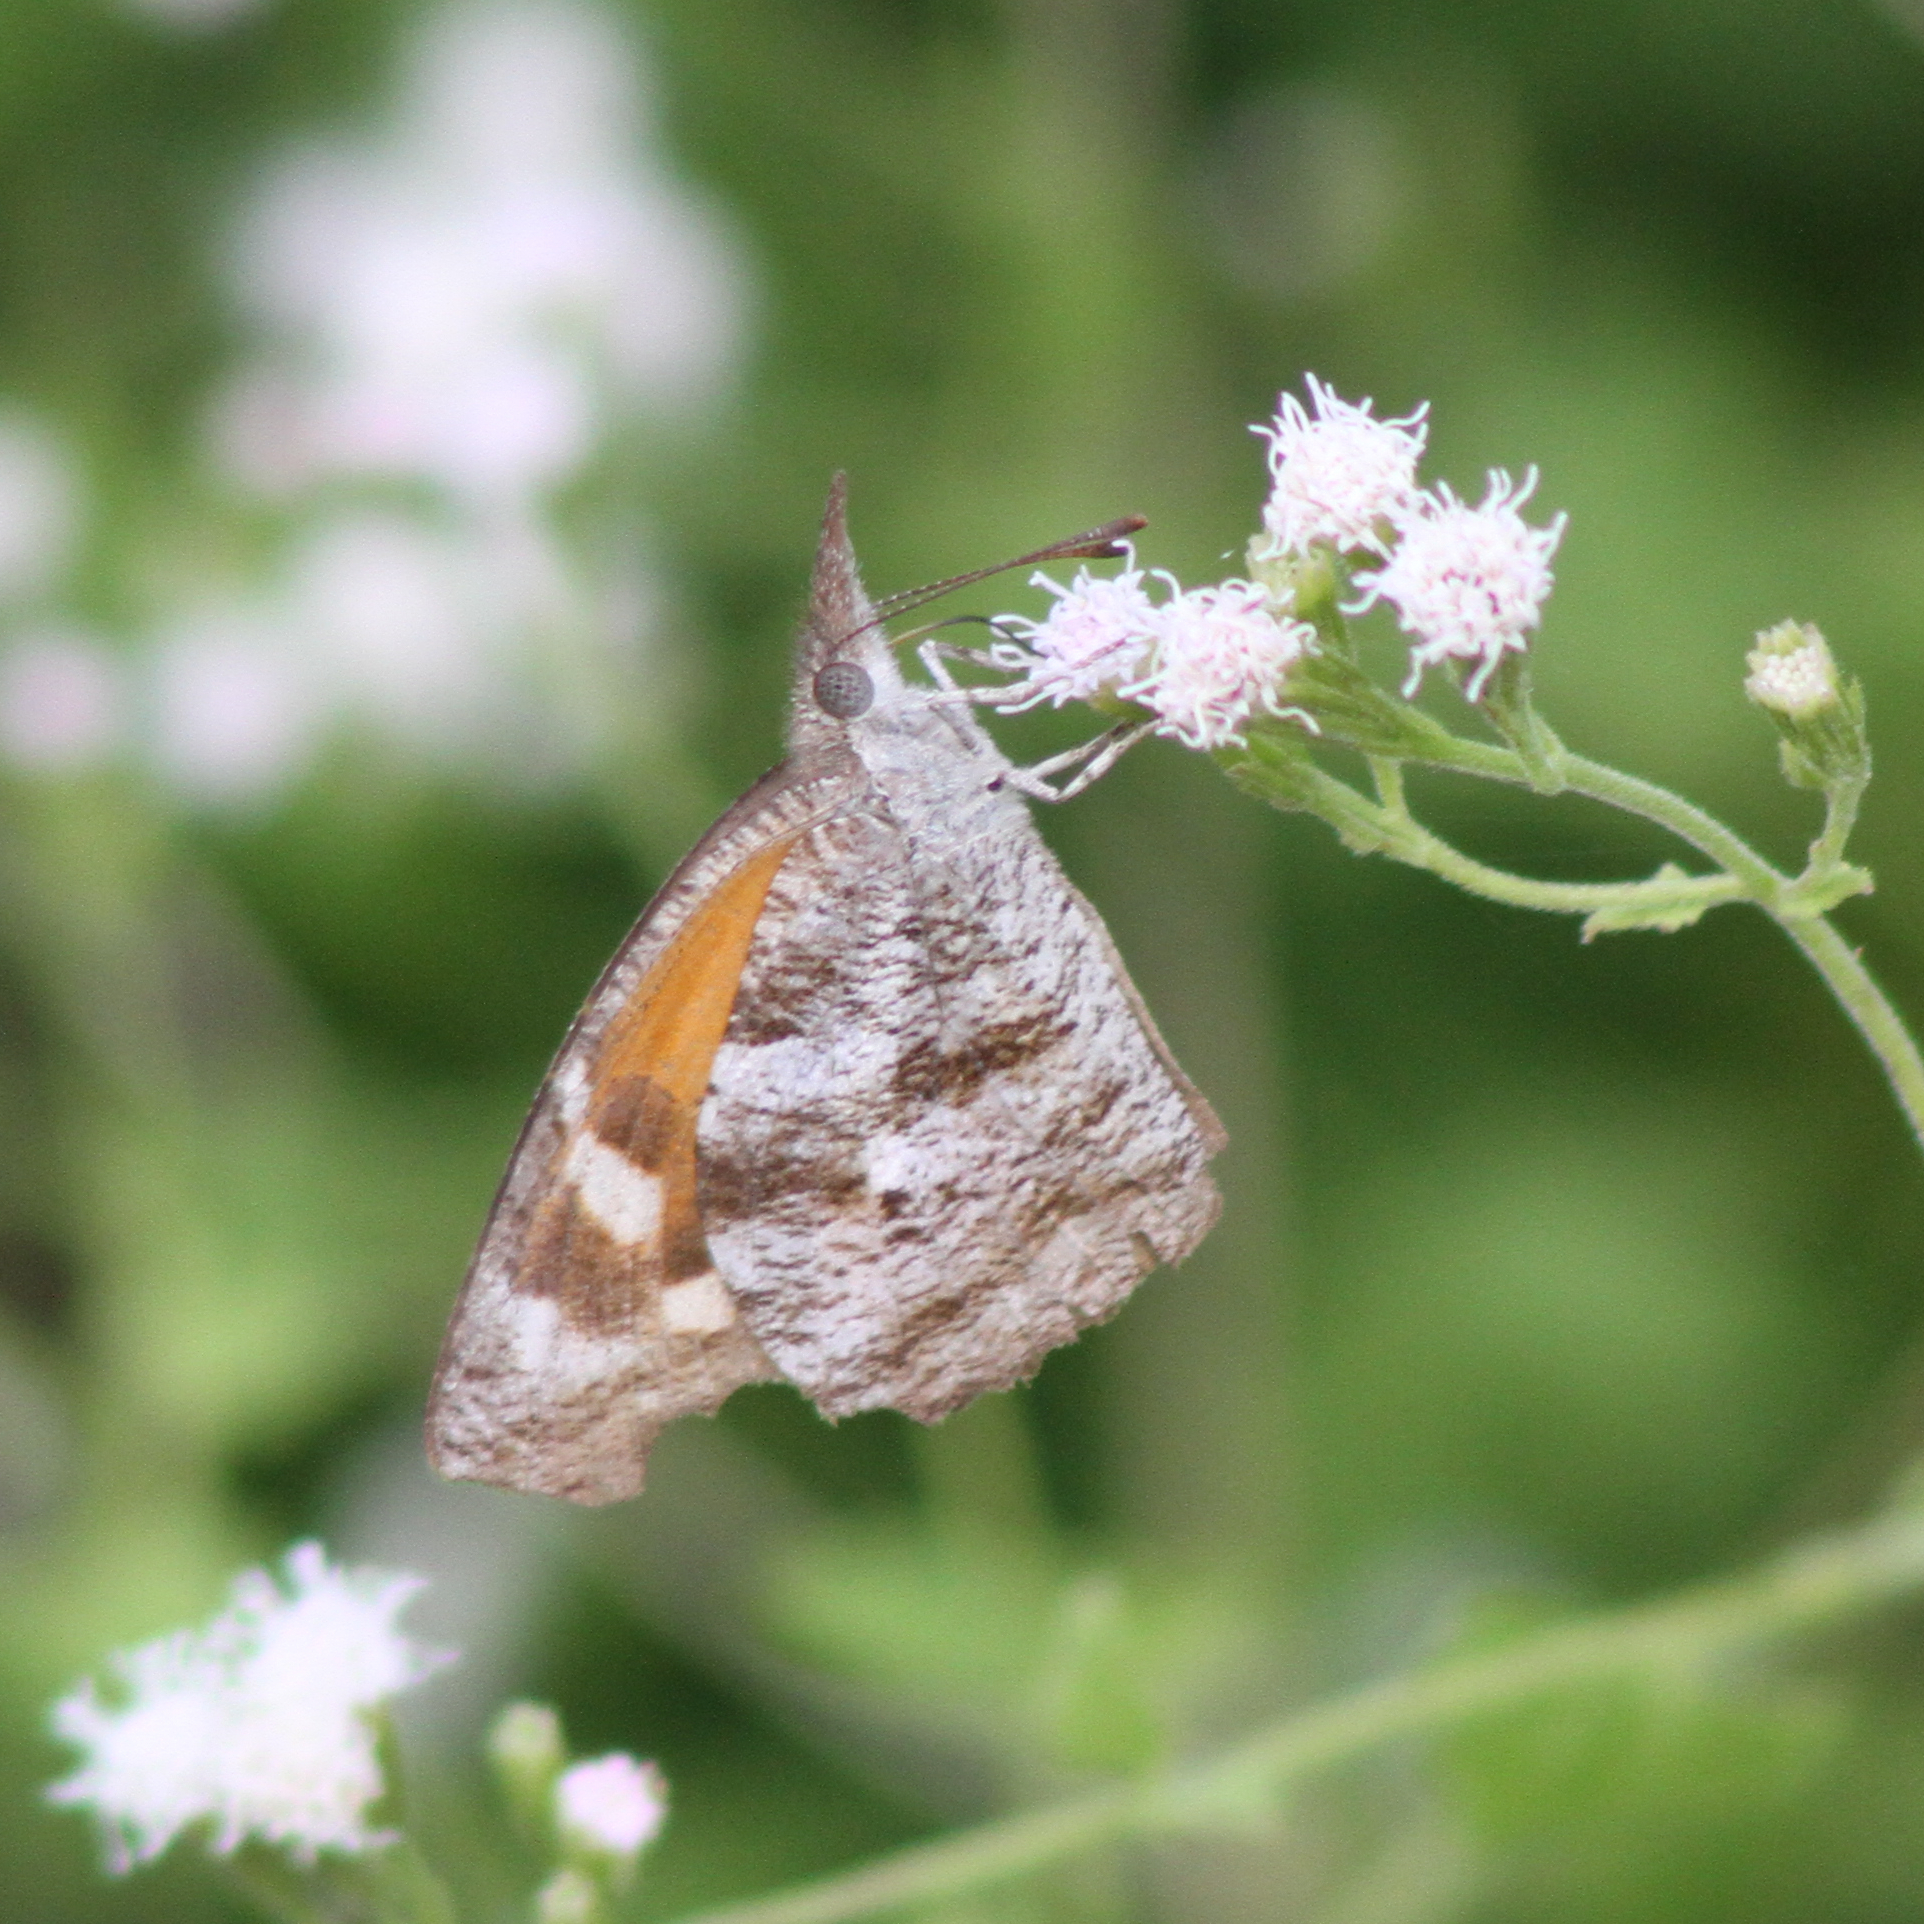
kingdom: Animalia
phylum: Arthropoda
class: Insecta
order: Lepidoptera
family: Nymphalidae
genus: Libytheana
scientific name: Libytheana carinenta
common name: American snout
